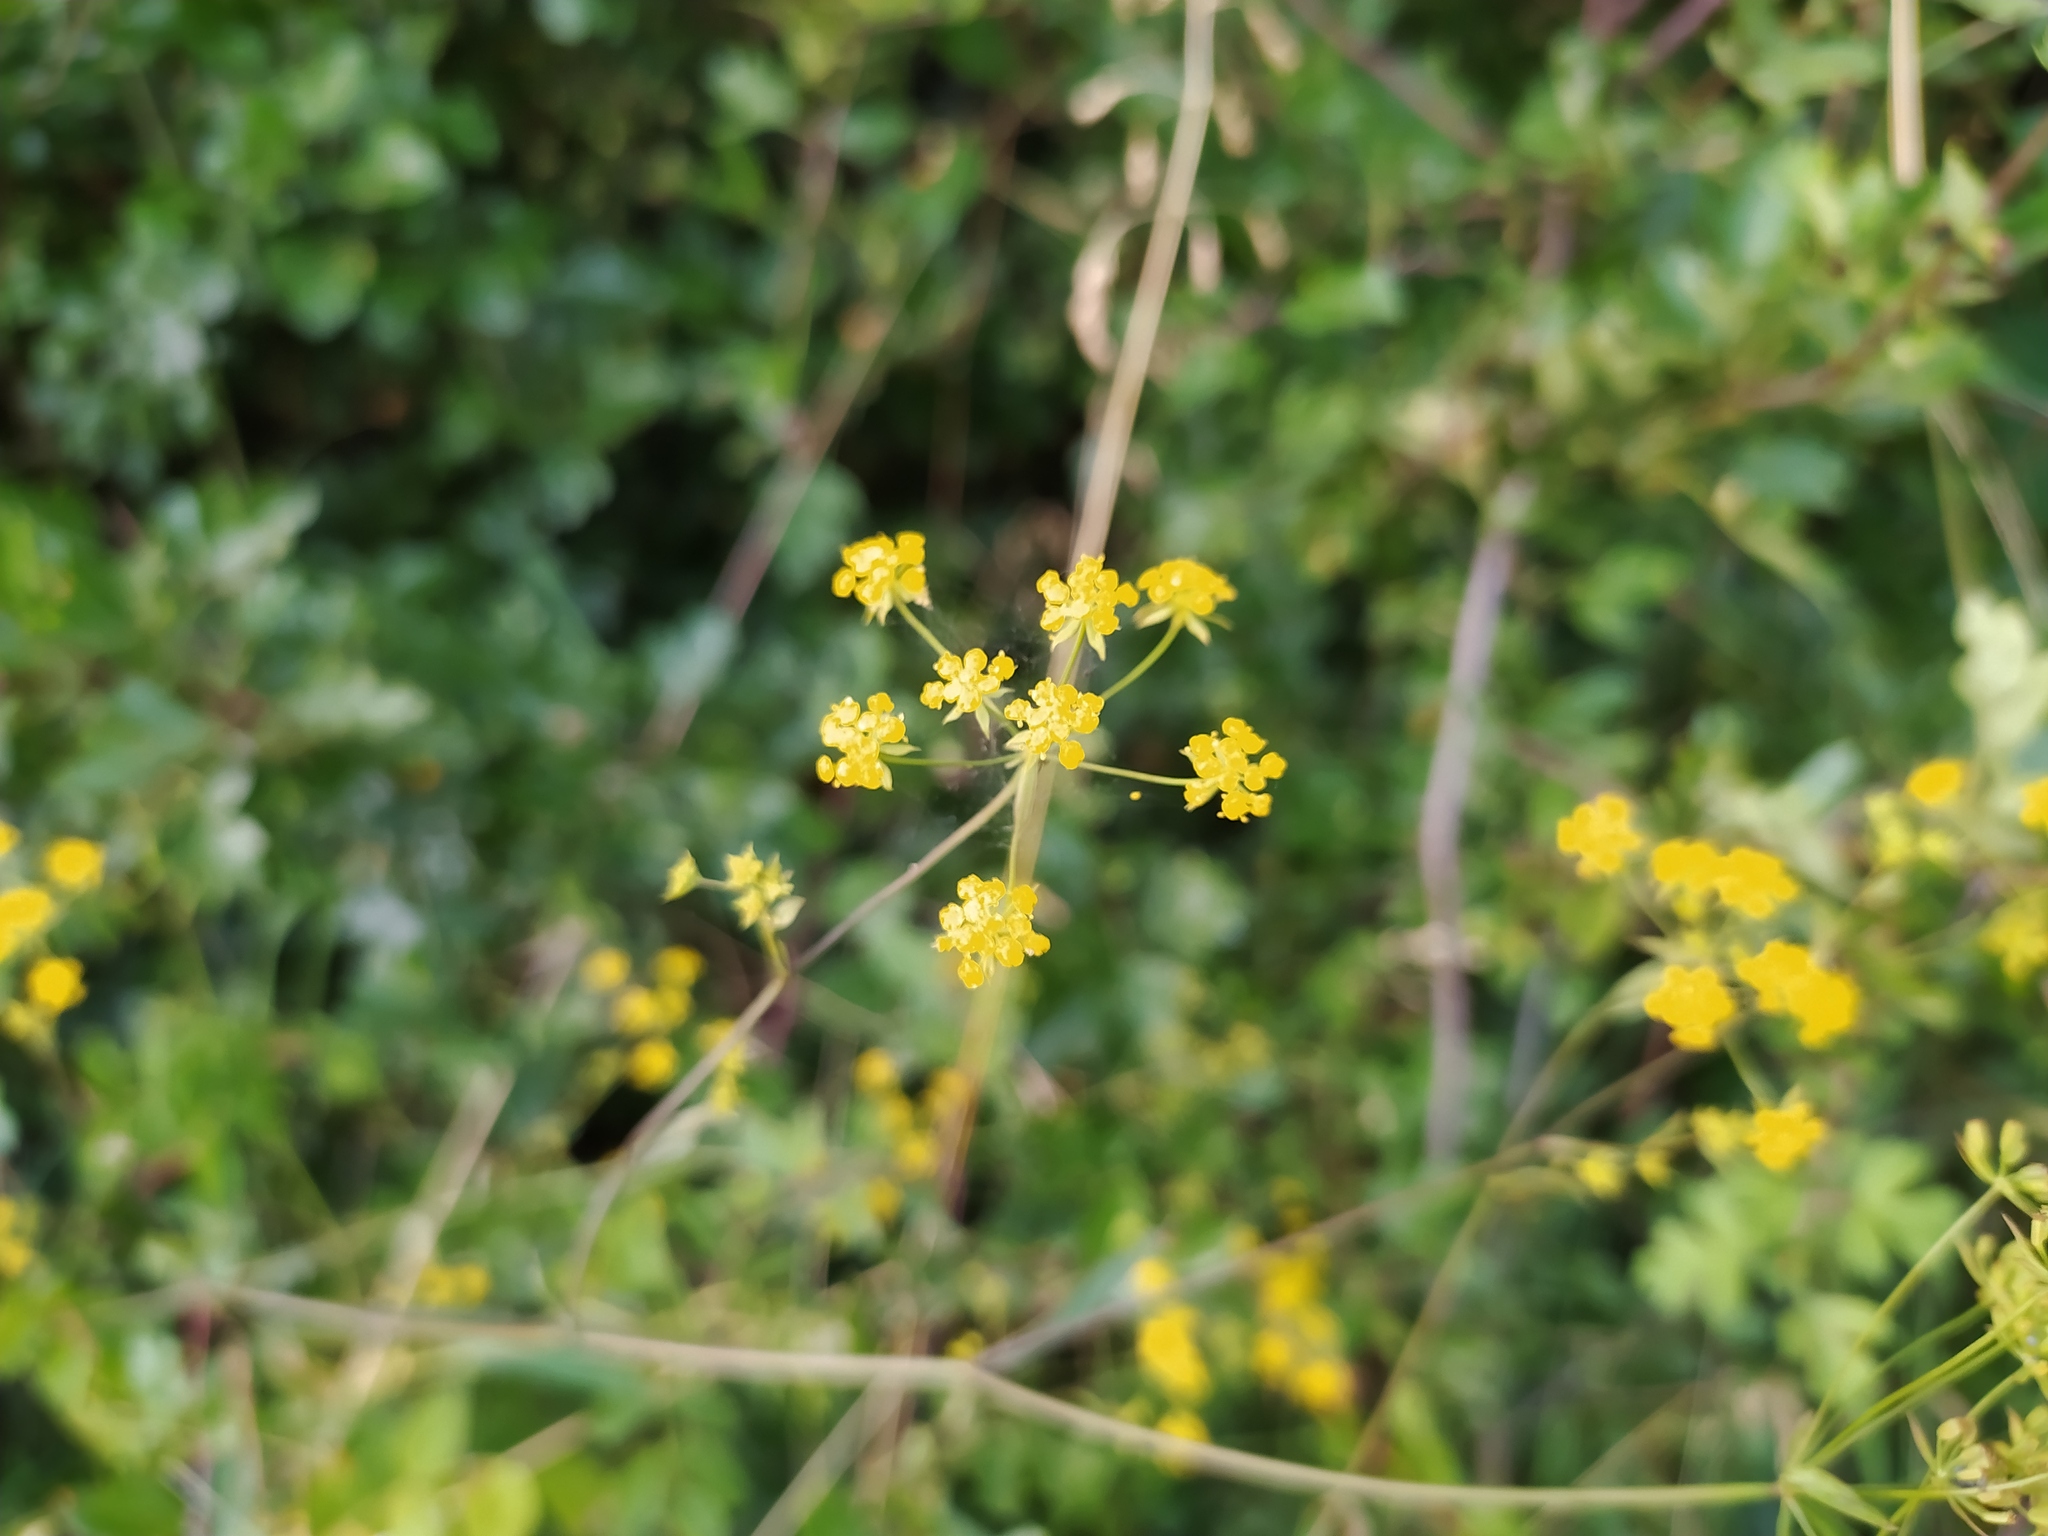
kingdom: Plantae
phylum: Tracheophyta
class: Magnoliopsida
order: Apiales
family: Apiaceae
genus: Bupleurum
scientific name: Bupleurum falcatum
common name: Sickle-leaved hare's-ear
